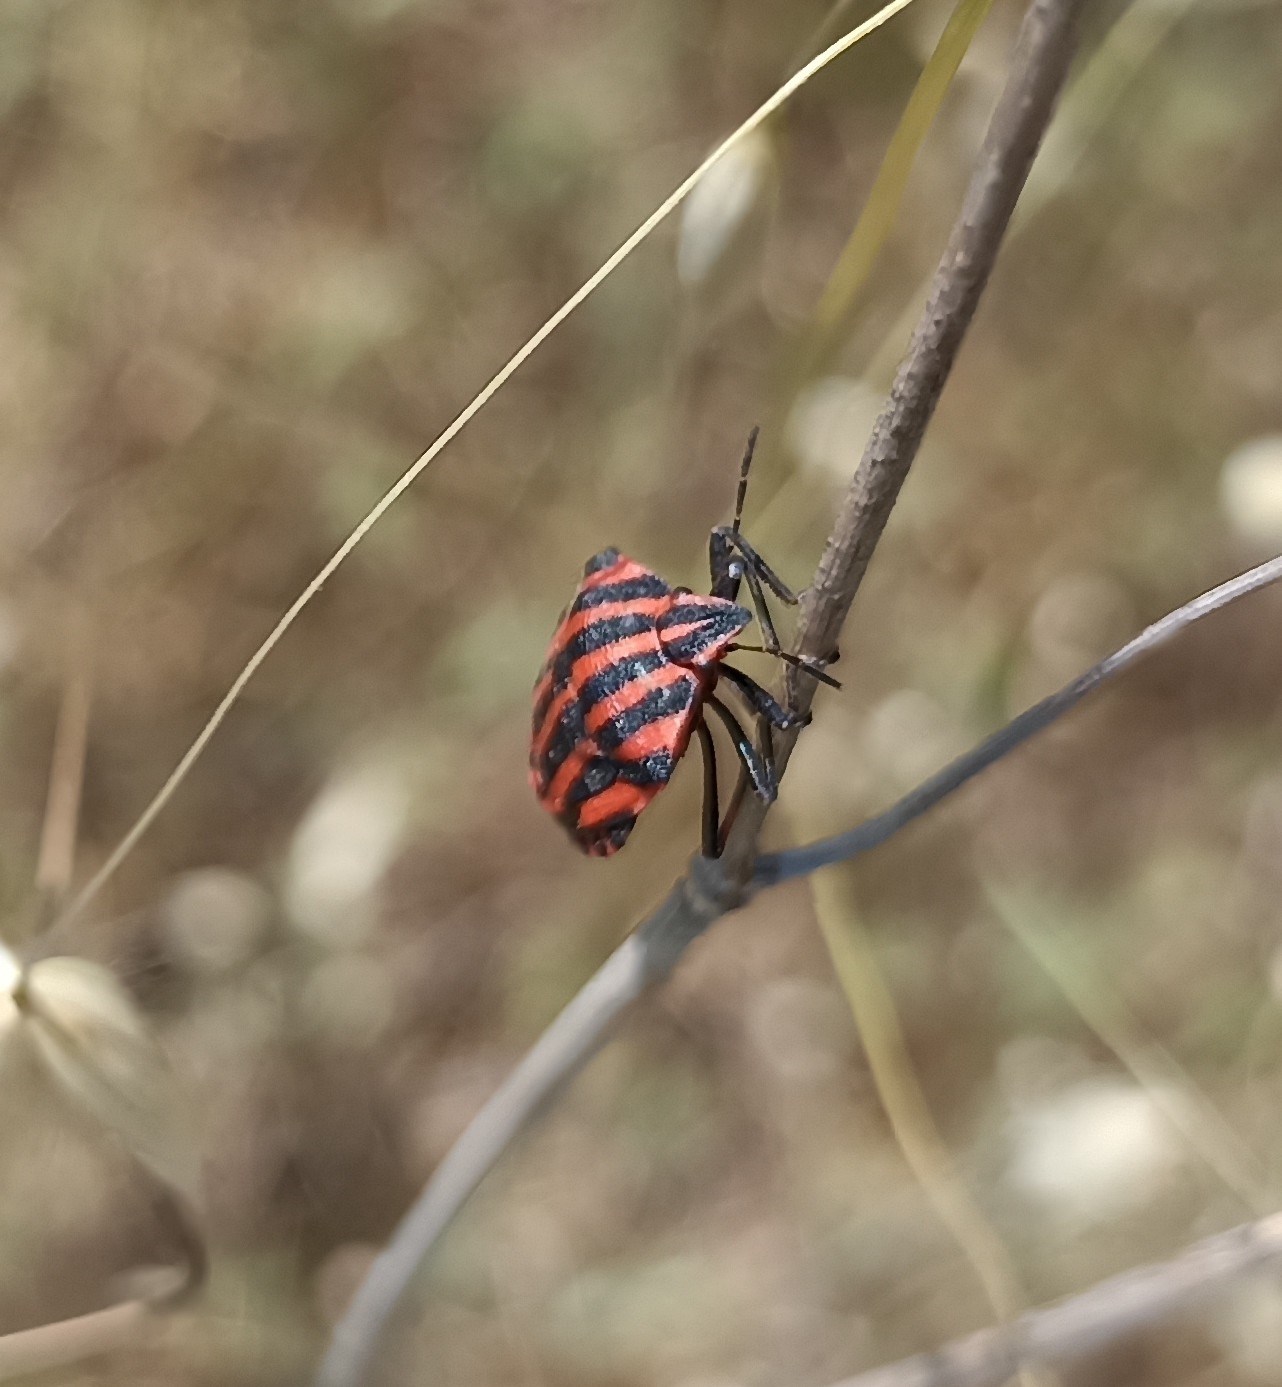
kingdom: Animalia
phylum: Arthropoda
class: Insecta
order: Hemiptera
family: Pentatomidae
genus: Graphosoma
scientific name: Graphosoma italicum
